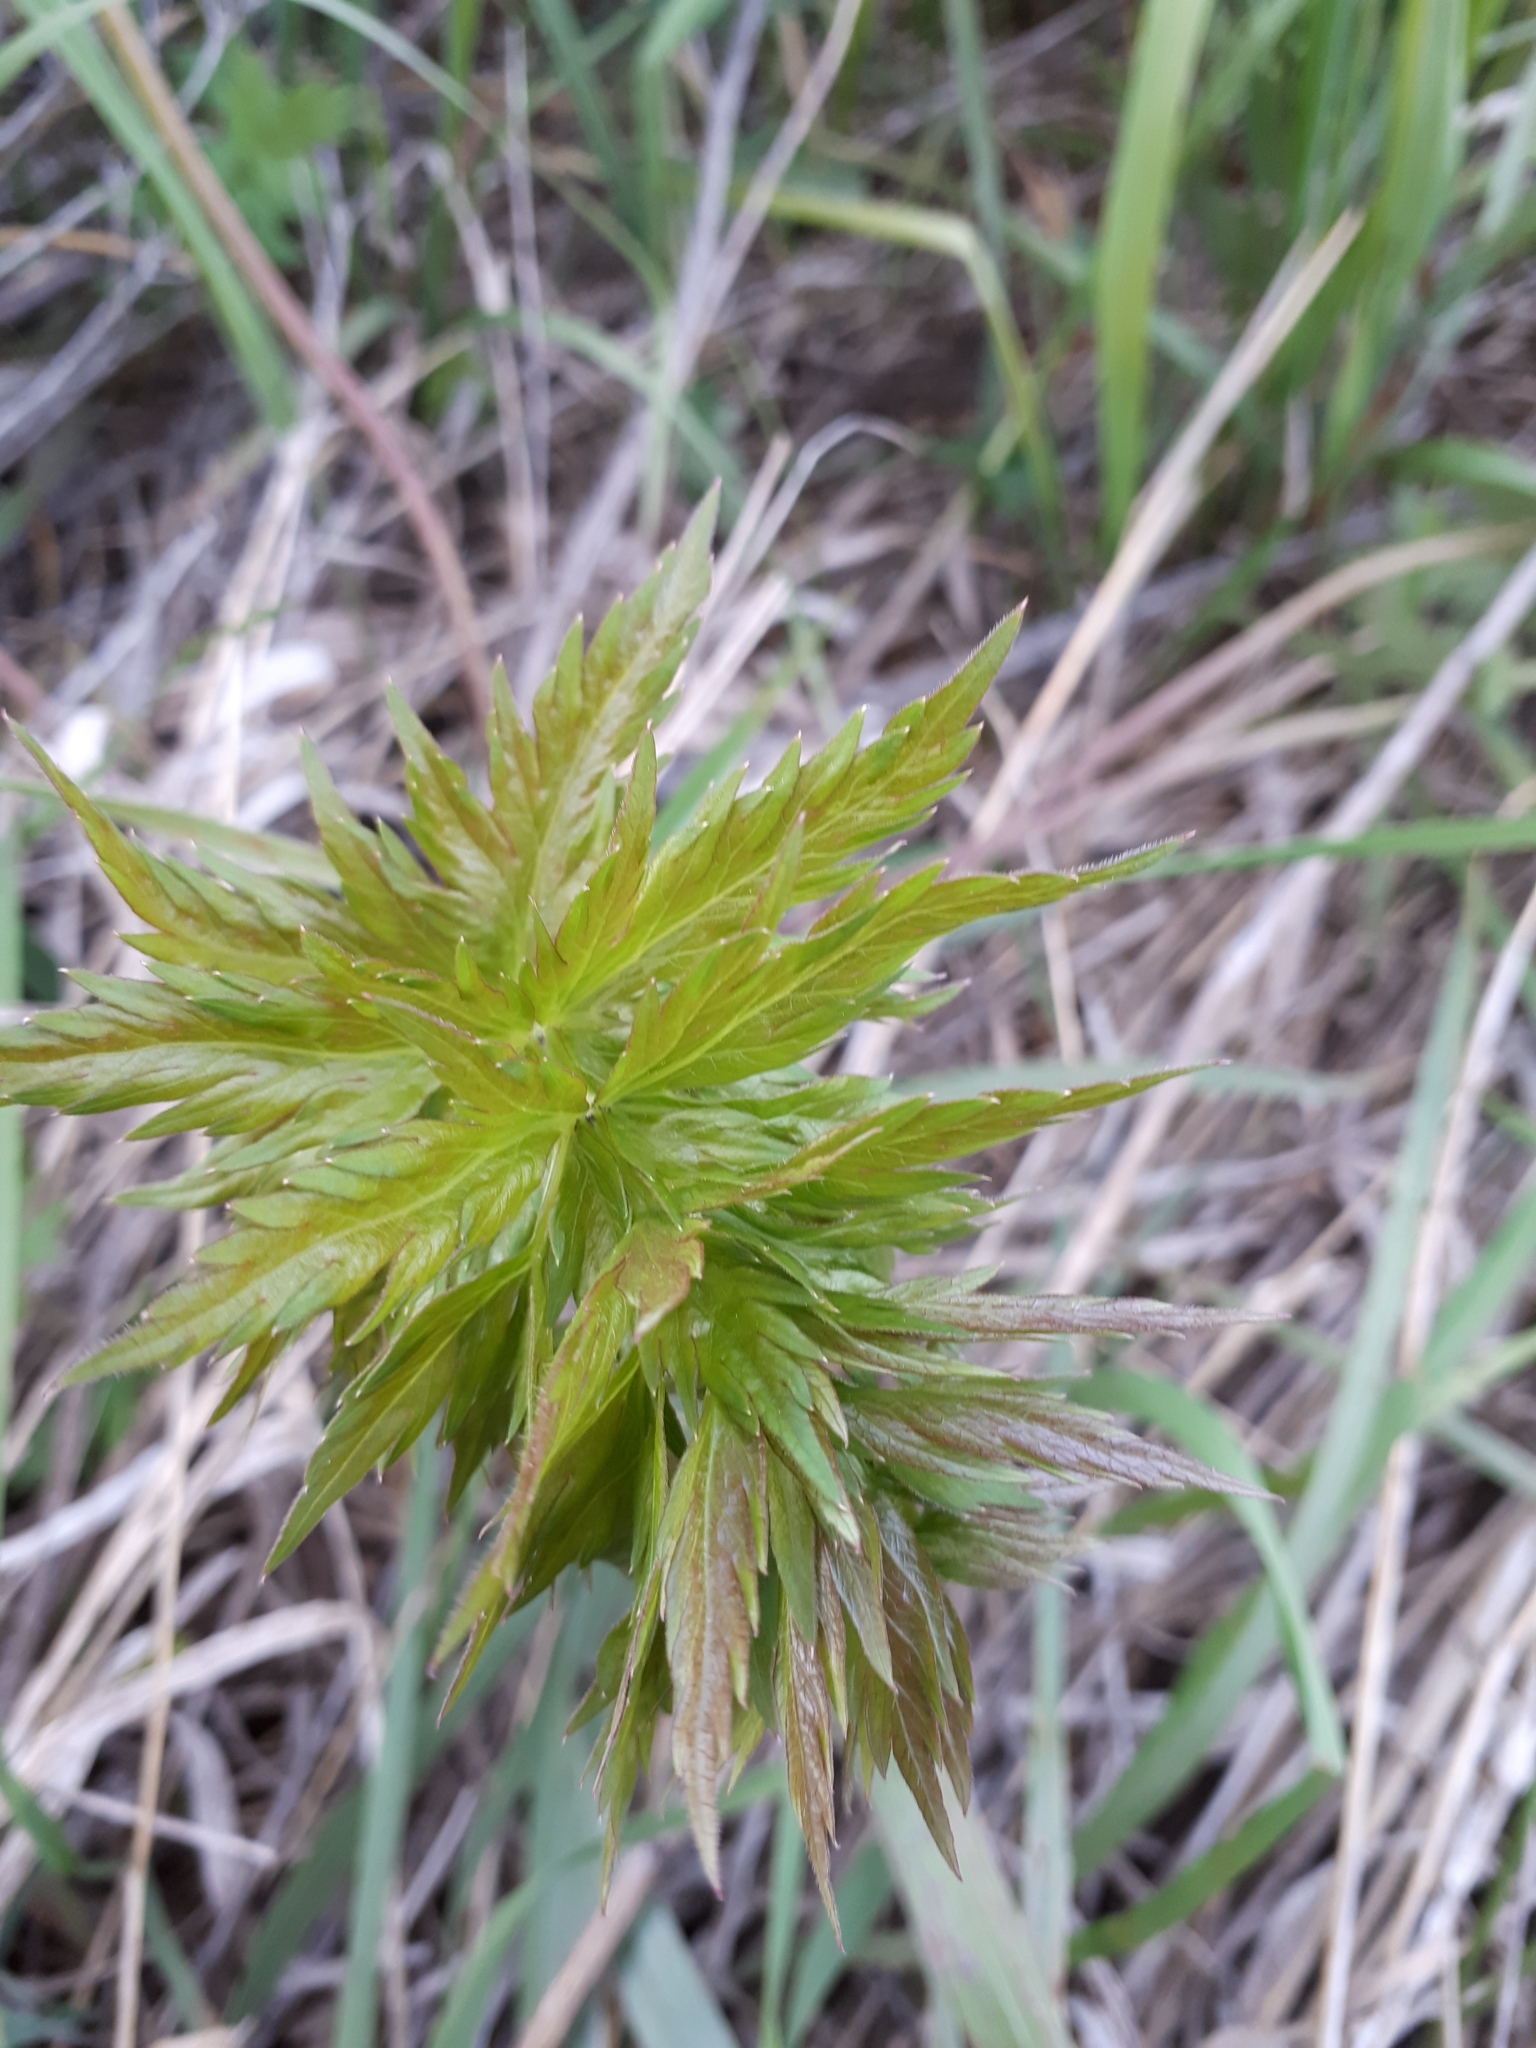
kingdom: Plantae
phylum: Tracheophyta
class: Magnoliopsida
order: Sapindales
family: Sapindaceae
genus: Acer
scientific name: Acer negundo
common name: Ashleaf maple
